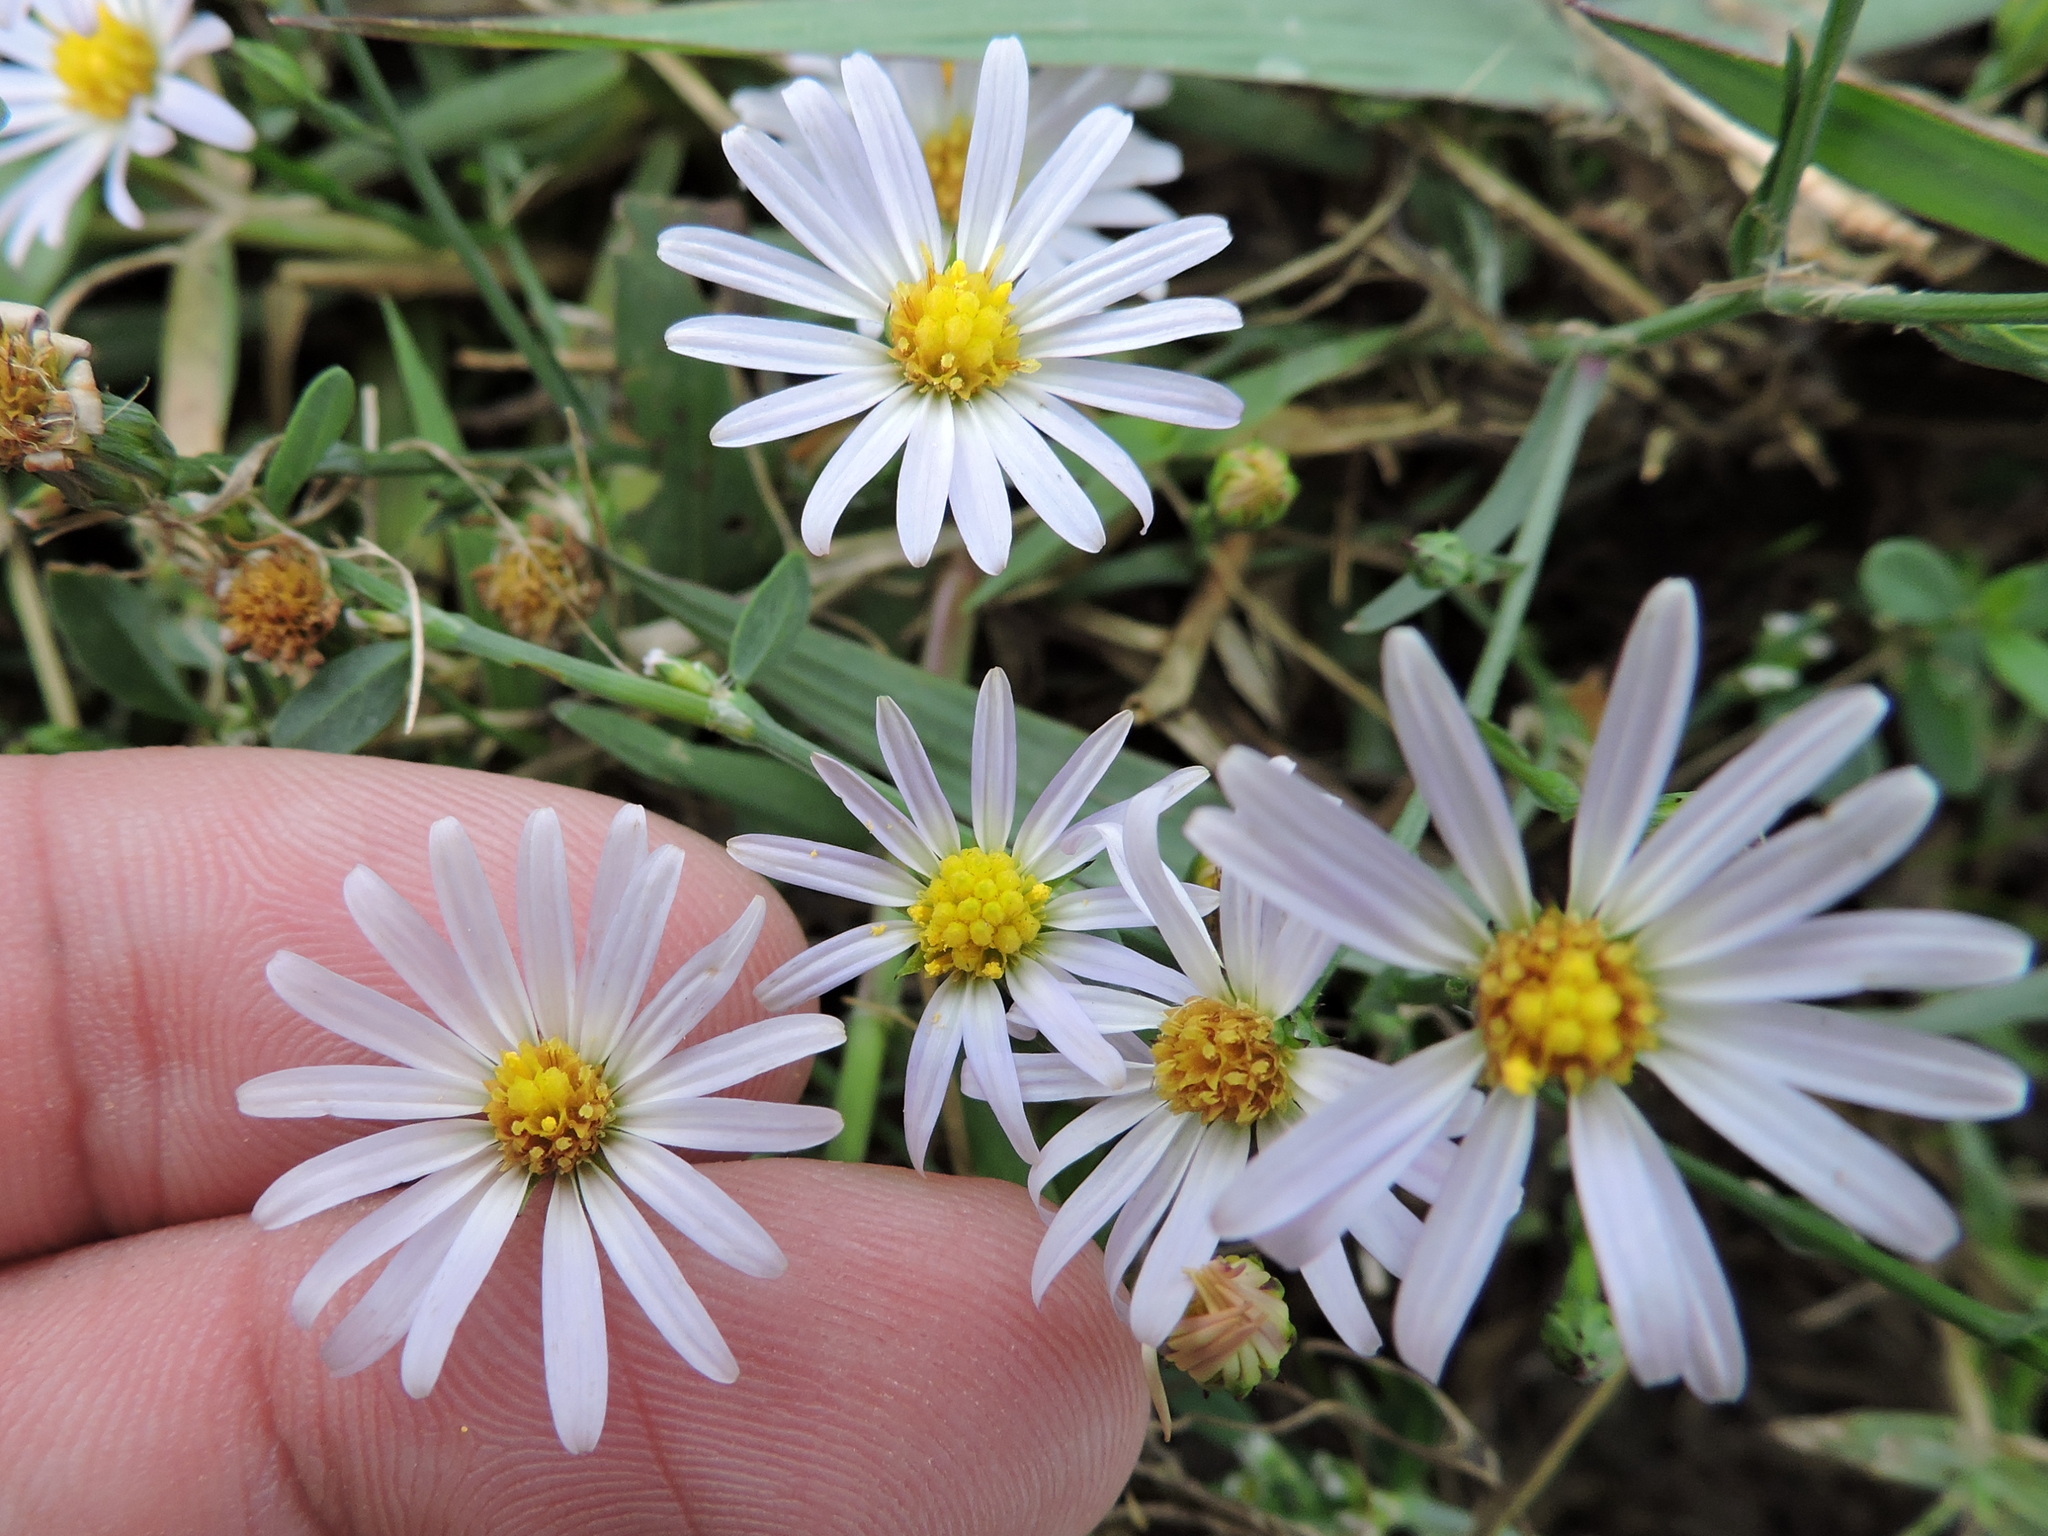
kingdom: Plantae
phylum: Tracheophyta
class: Magnoliopsida
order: Asterales
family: Asteraceae
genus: Symphyotrichum
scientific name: Symphyotrichum divaricatum
